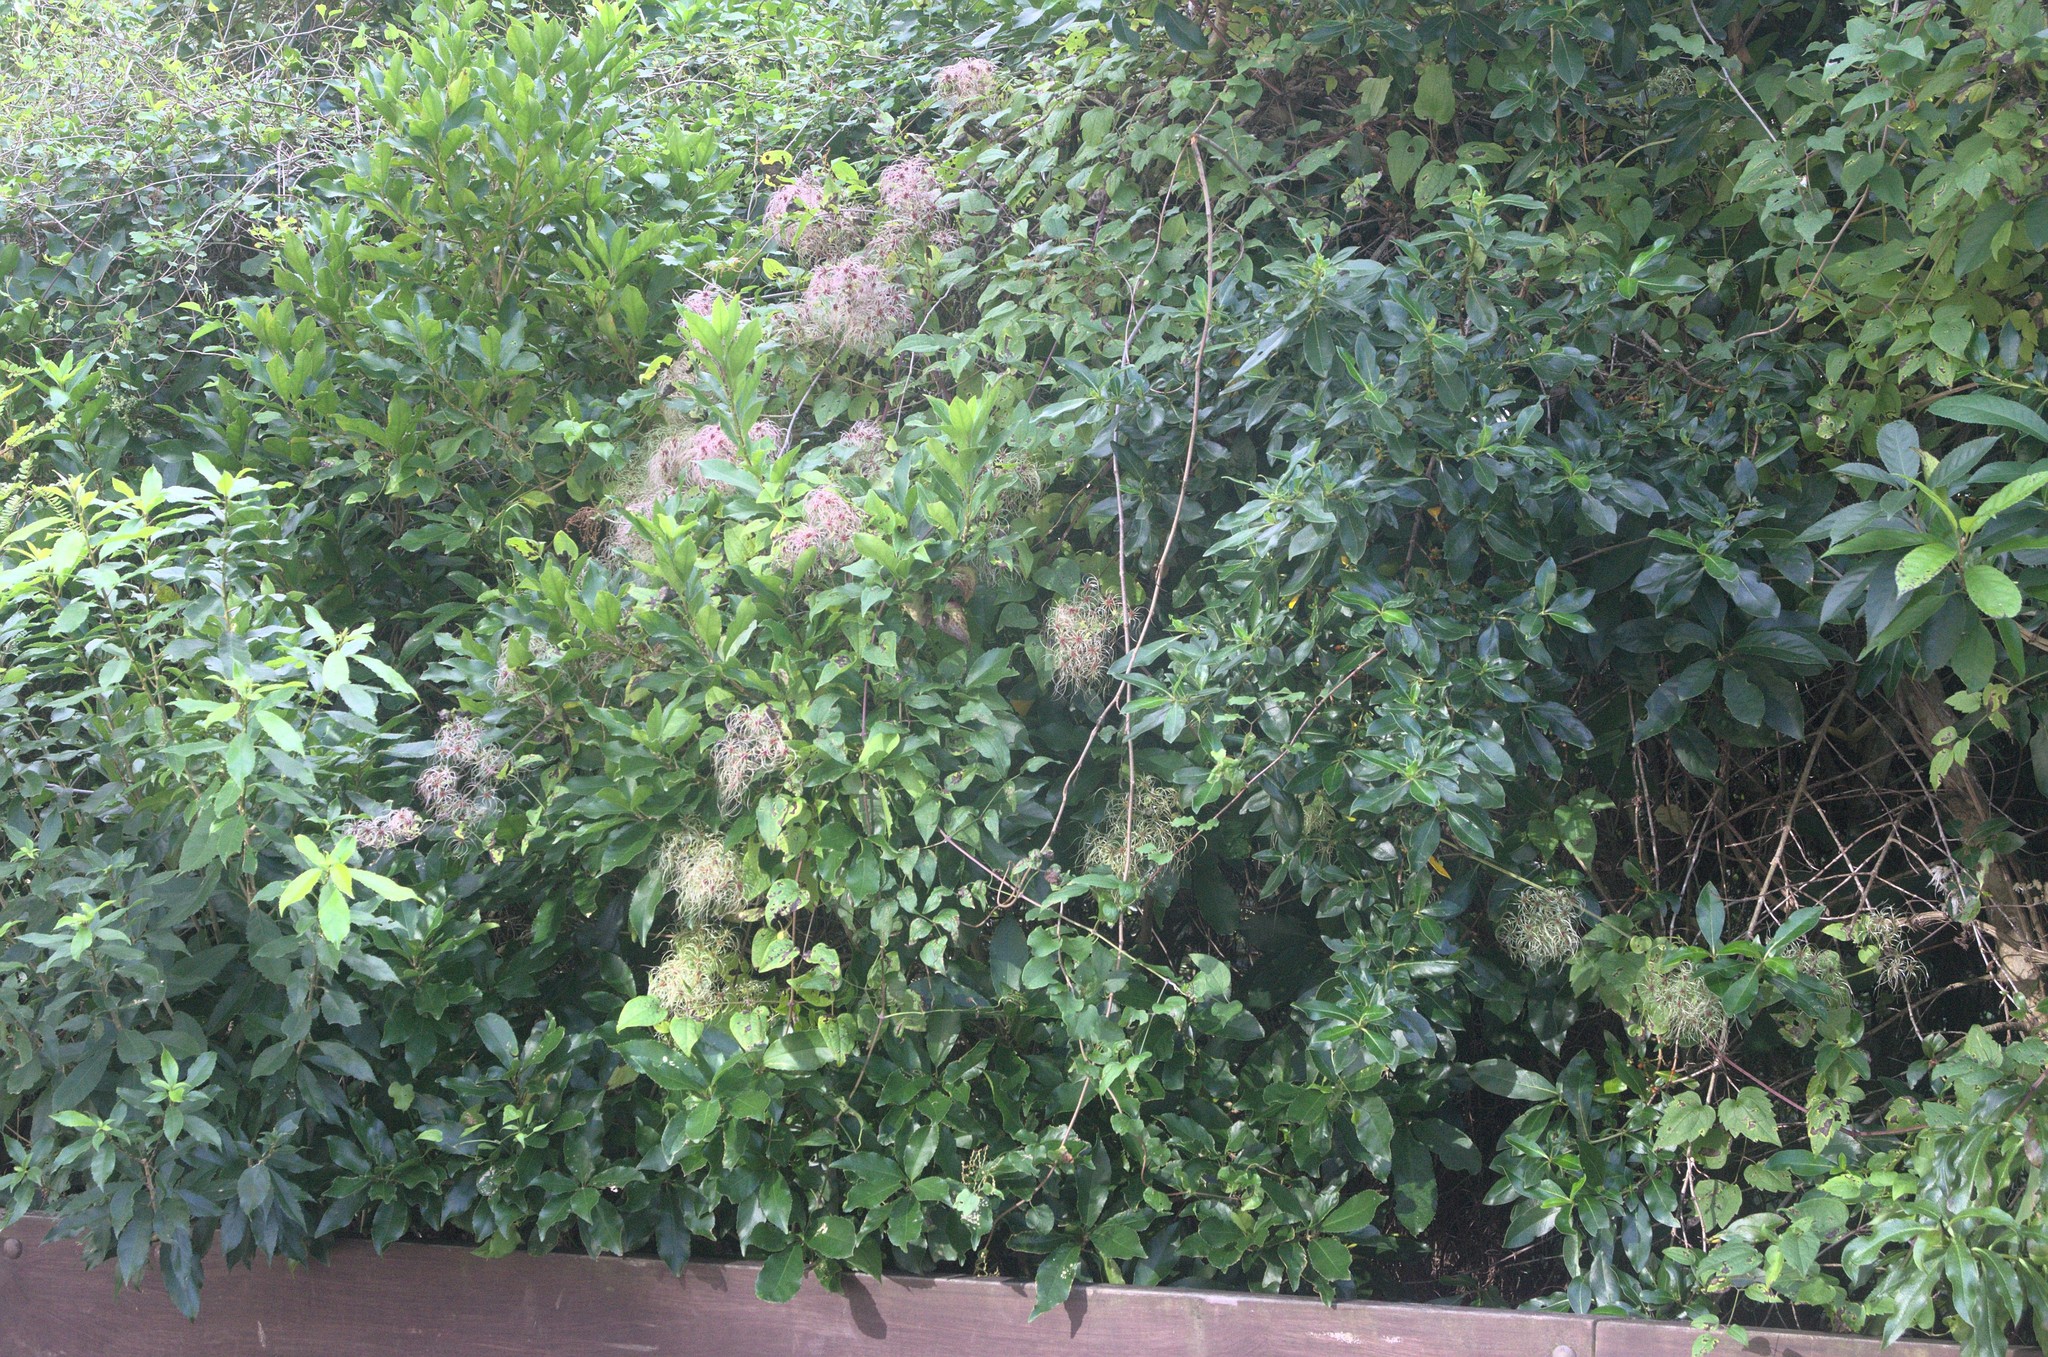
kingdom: Plantae
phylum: Tracheophyta
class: Magnoliopsida
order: Ranunculales
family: Ranunculaceae
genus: Clematis
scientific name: Clematis vitalba
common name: Evergreen clematis
